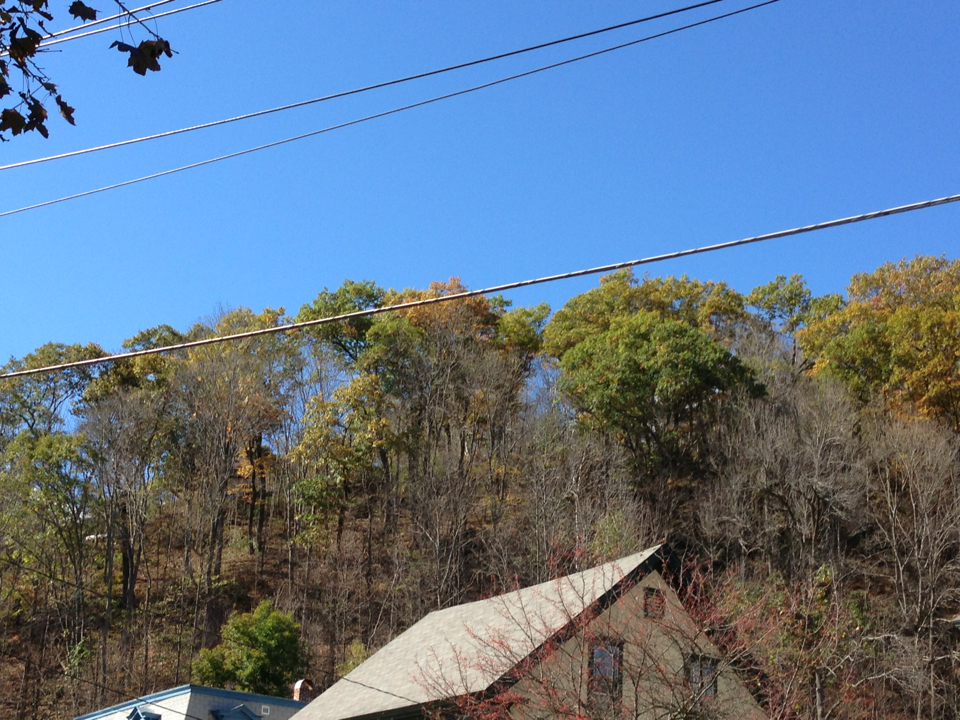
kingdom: Plantae
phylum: Tracheophyta
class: Magnoliopsida
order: Fagales
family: Fagaceae
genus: Quercus
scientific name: Quercus rubra
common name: Red oak
